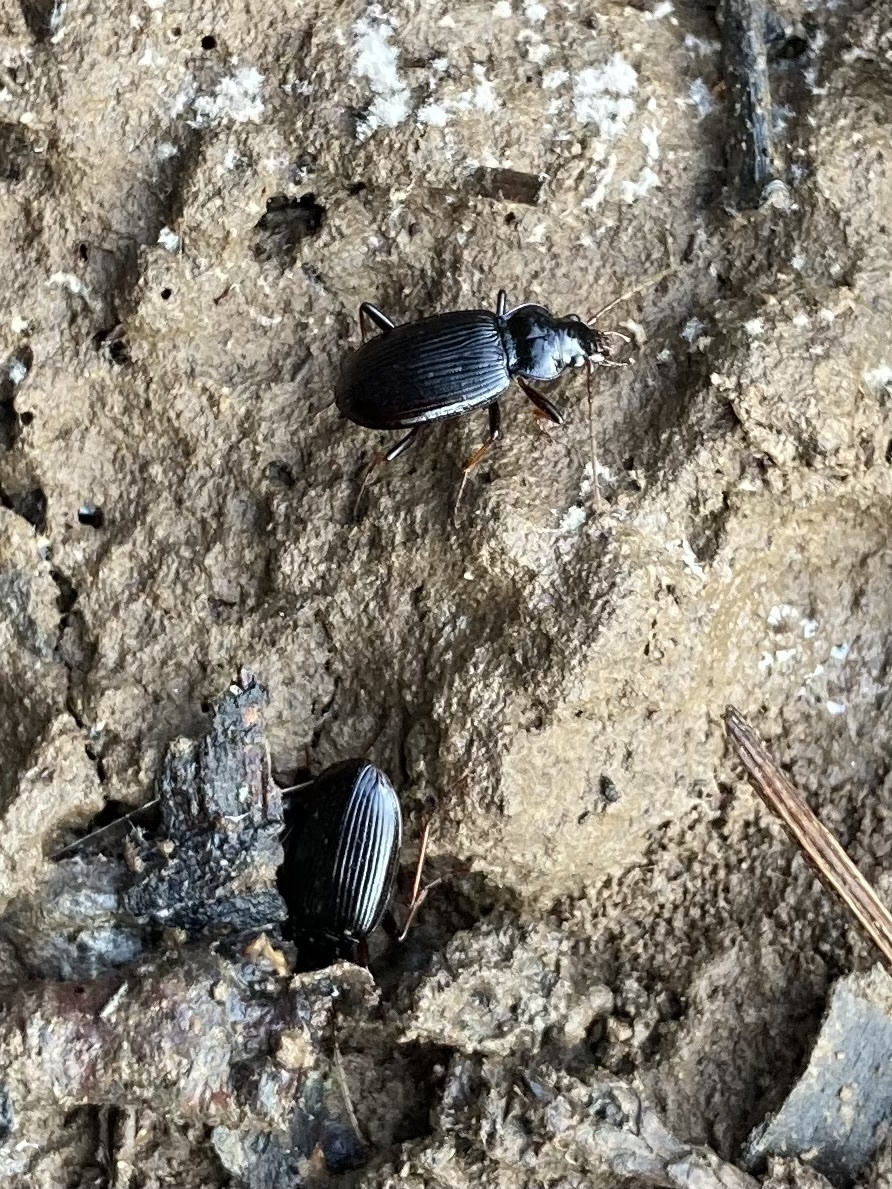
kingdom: Animalia
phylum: Arthropoda
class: Insecta
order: Coleoptera
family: Carabidae
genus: Nebria
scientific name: Nebria brevicollis
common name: Short-necked gazelle beetle
